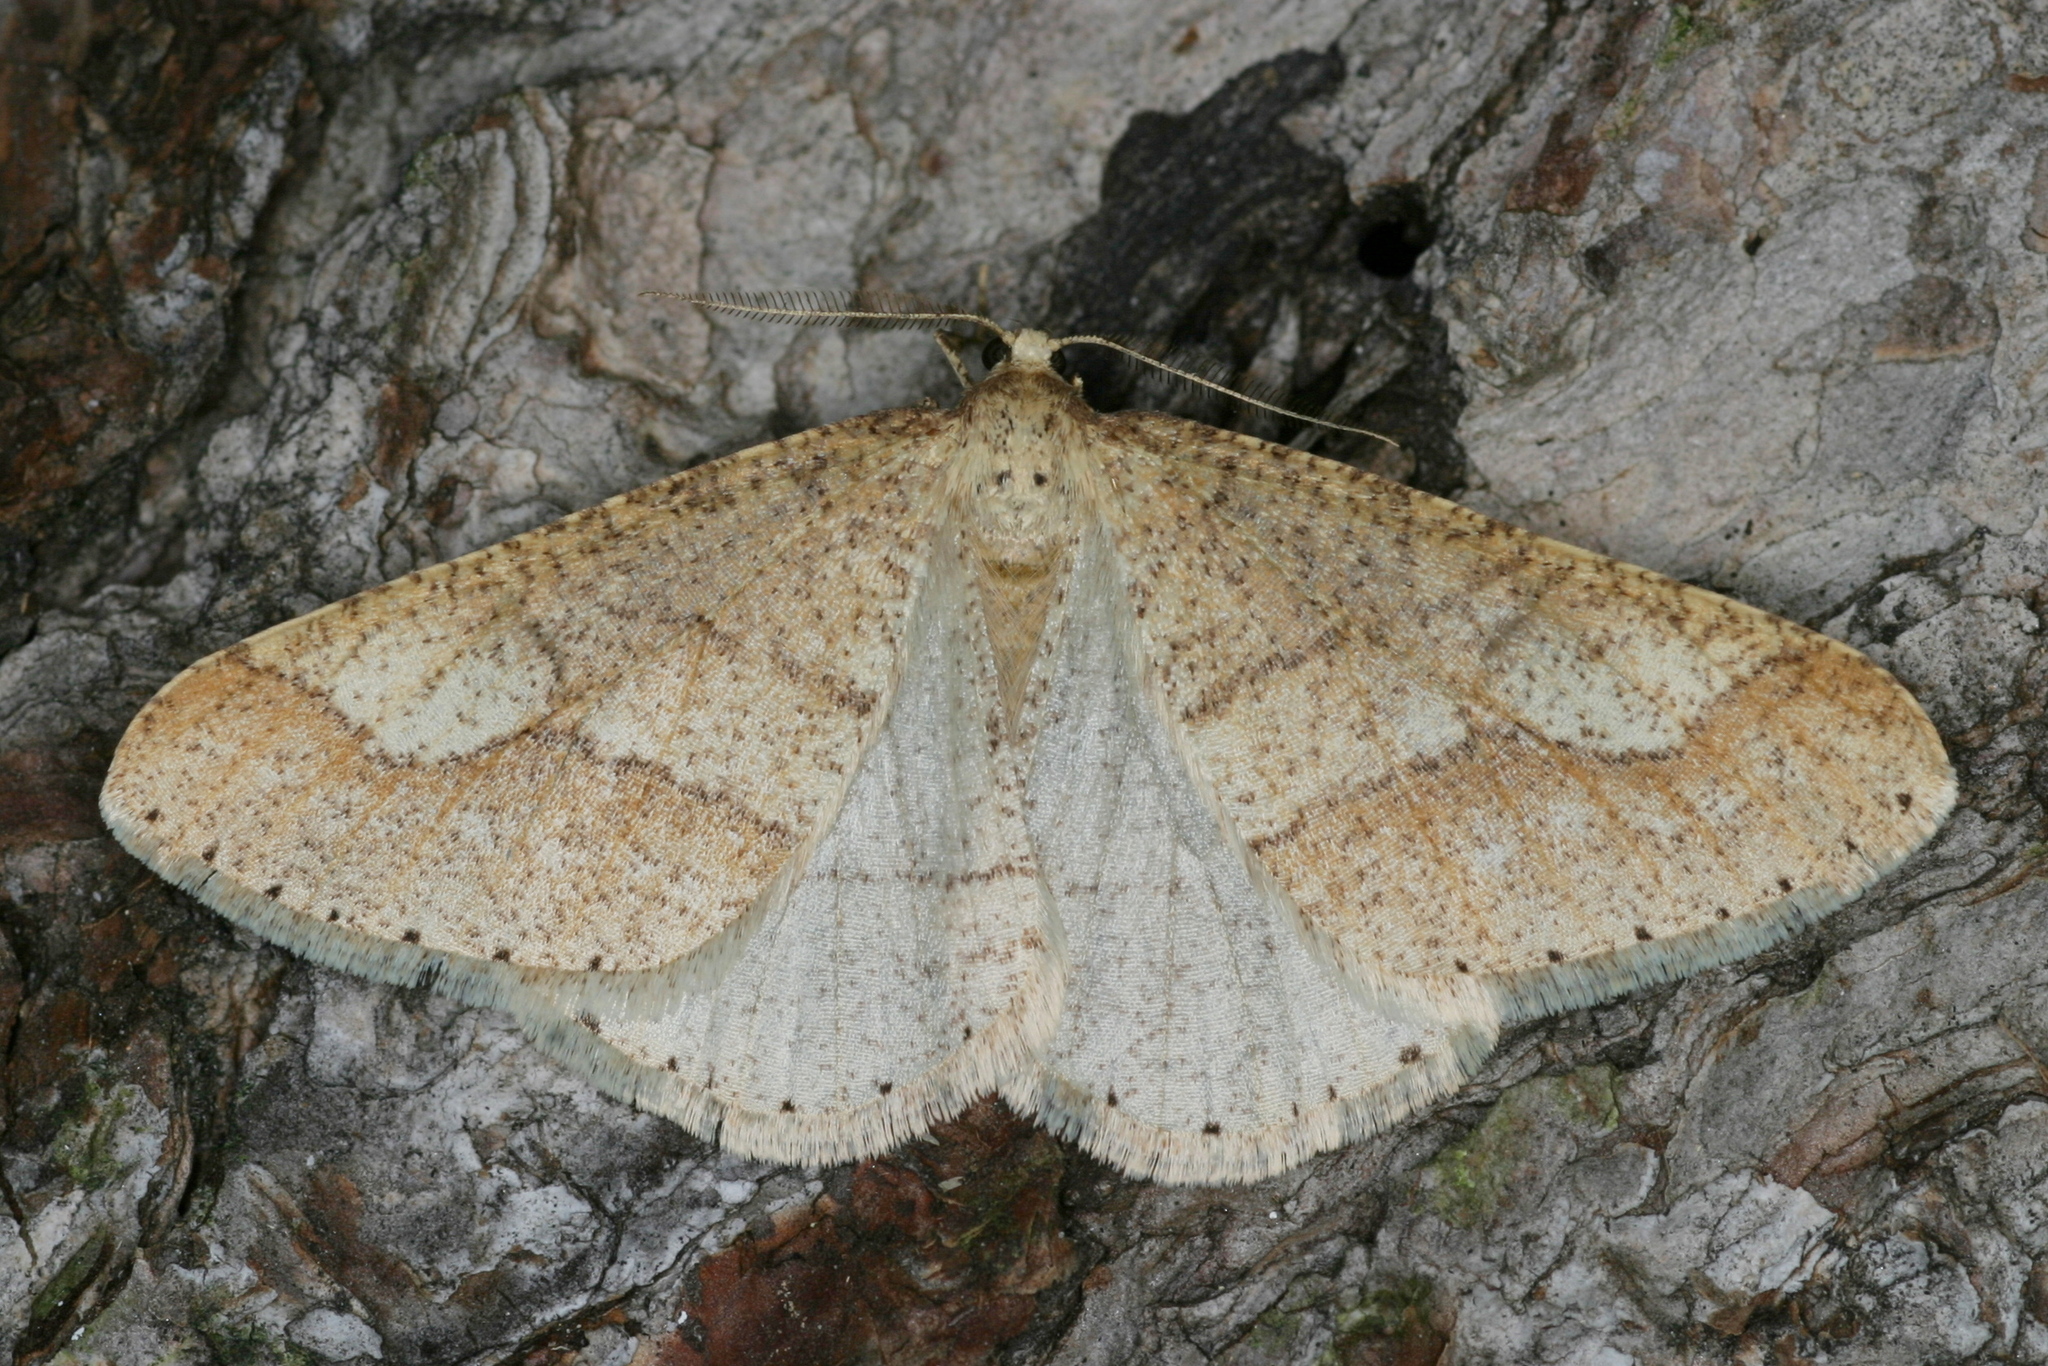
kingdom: Animalia
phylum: Arthropoda
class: Insecta
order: Lepidoptera
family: Geometridae
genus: Agriopis
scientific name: Agriopis marginaria
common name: Dotted border
